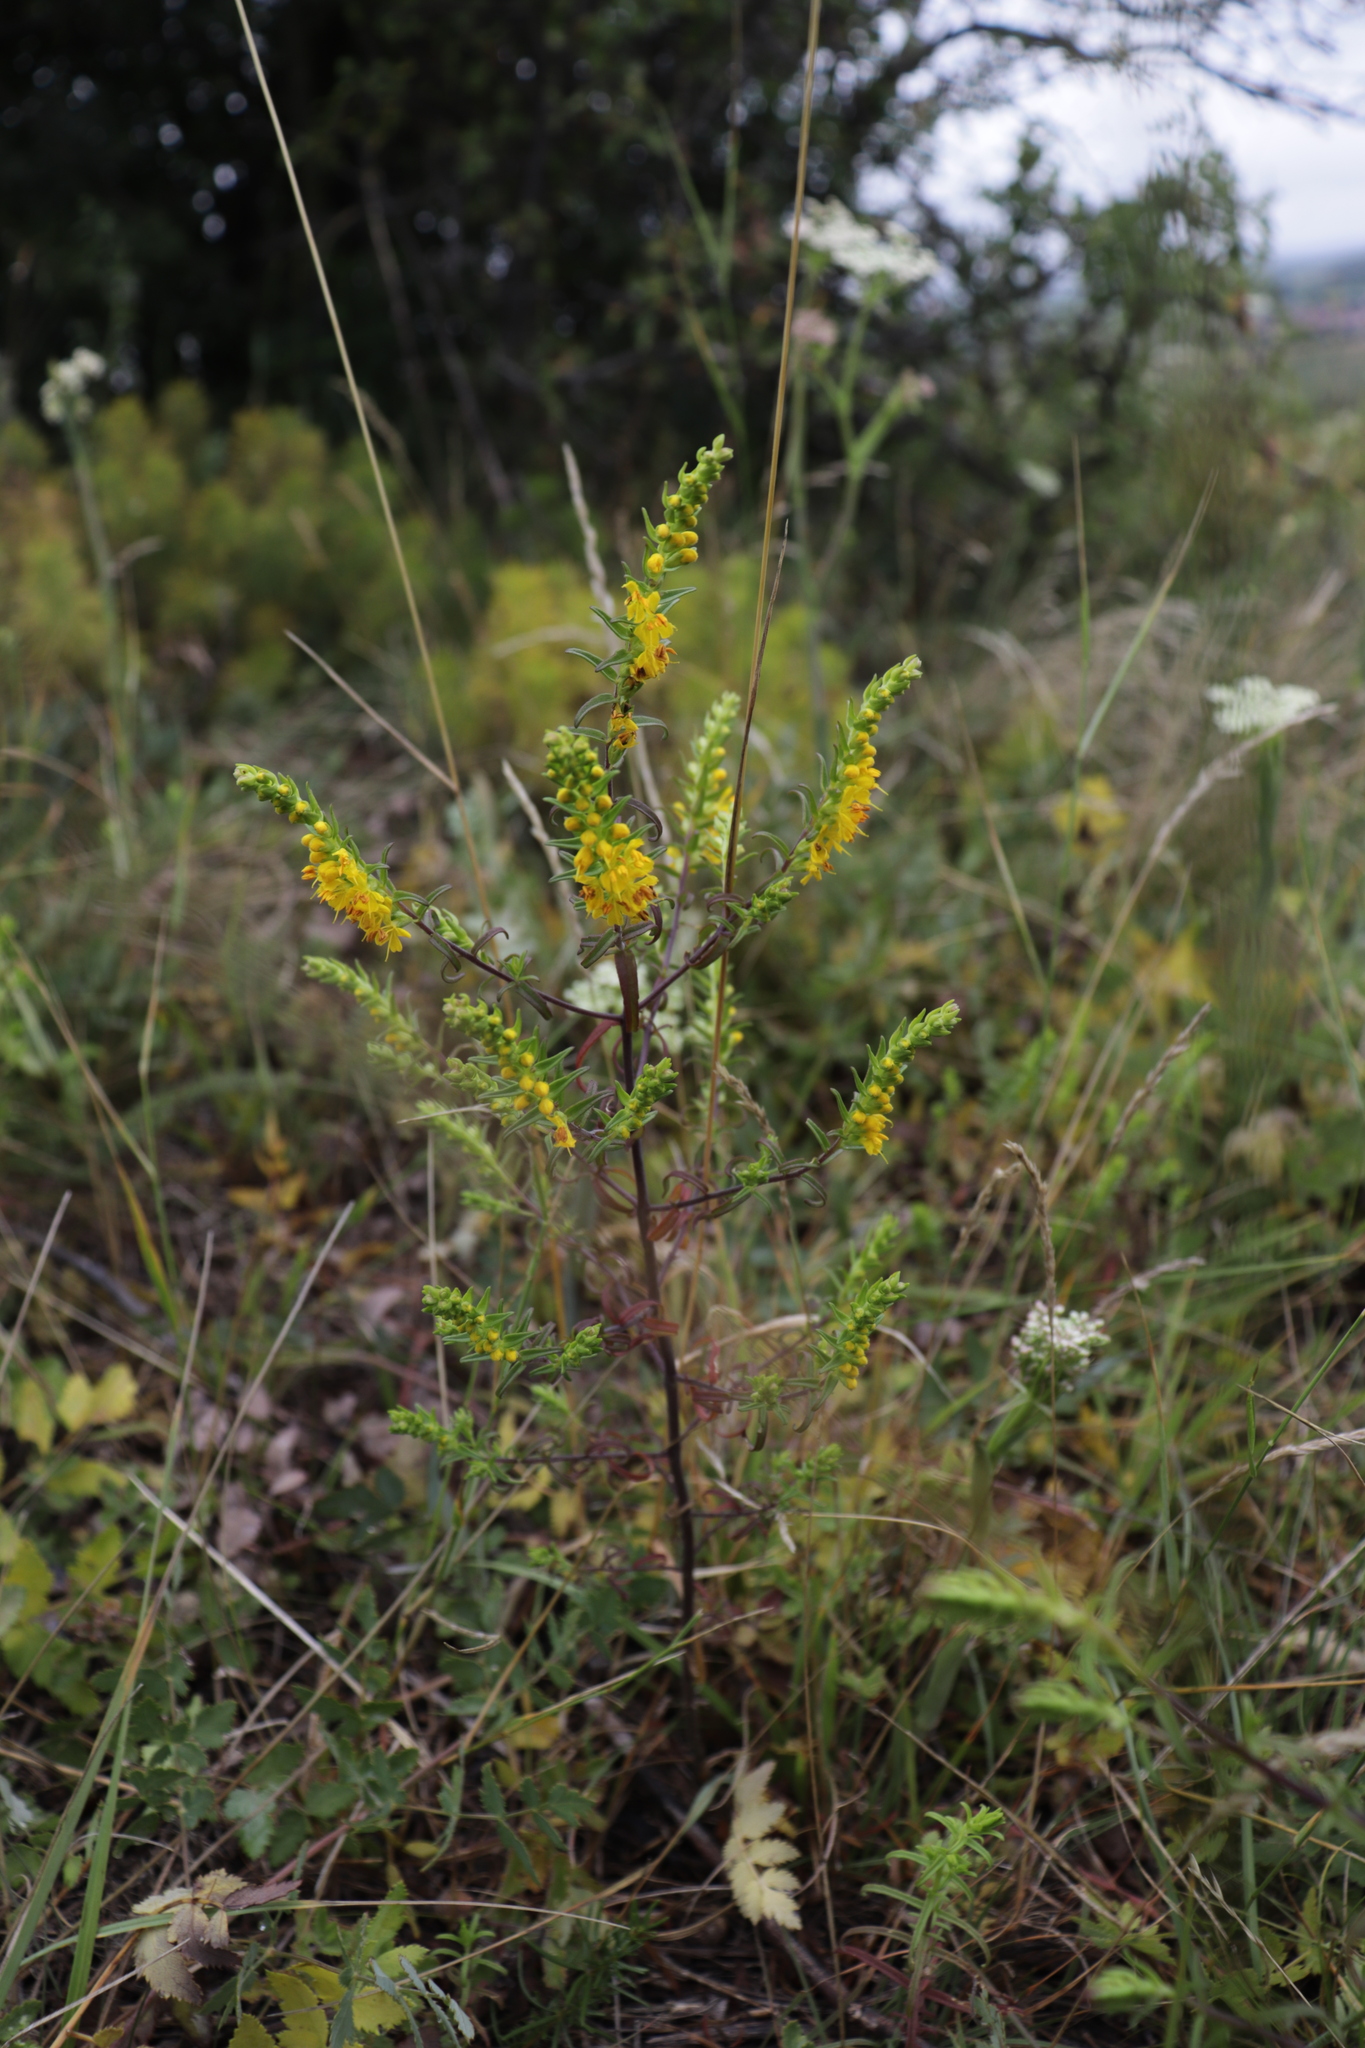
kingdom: Plantae
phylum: Tracheophyta
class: Magnoliopsida
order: Lamiales
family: Orobanchaceae
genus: Odontites
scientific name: Odontites luteus
